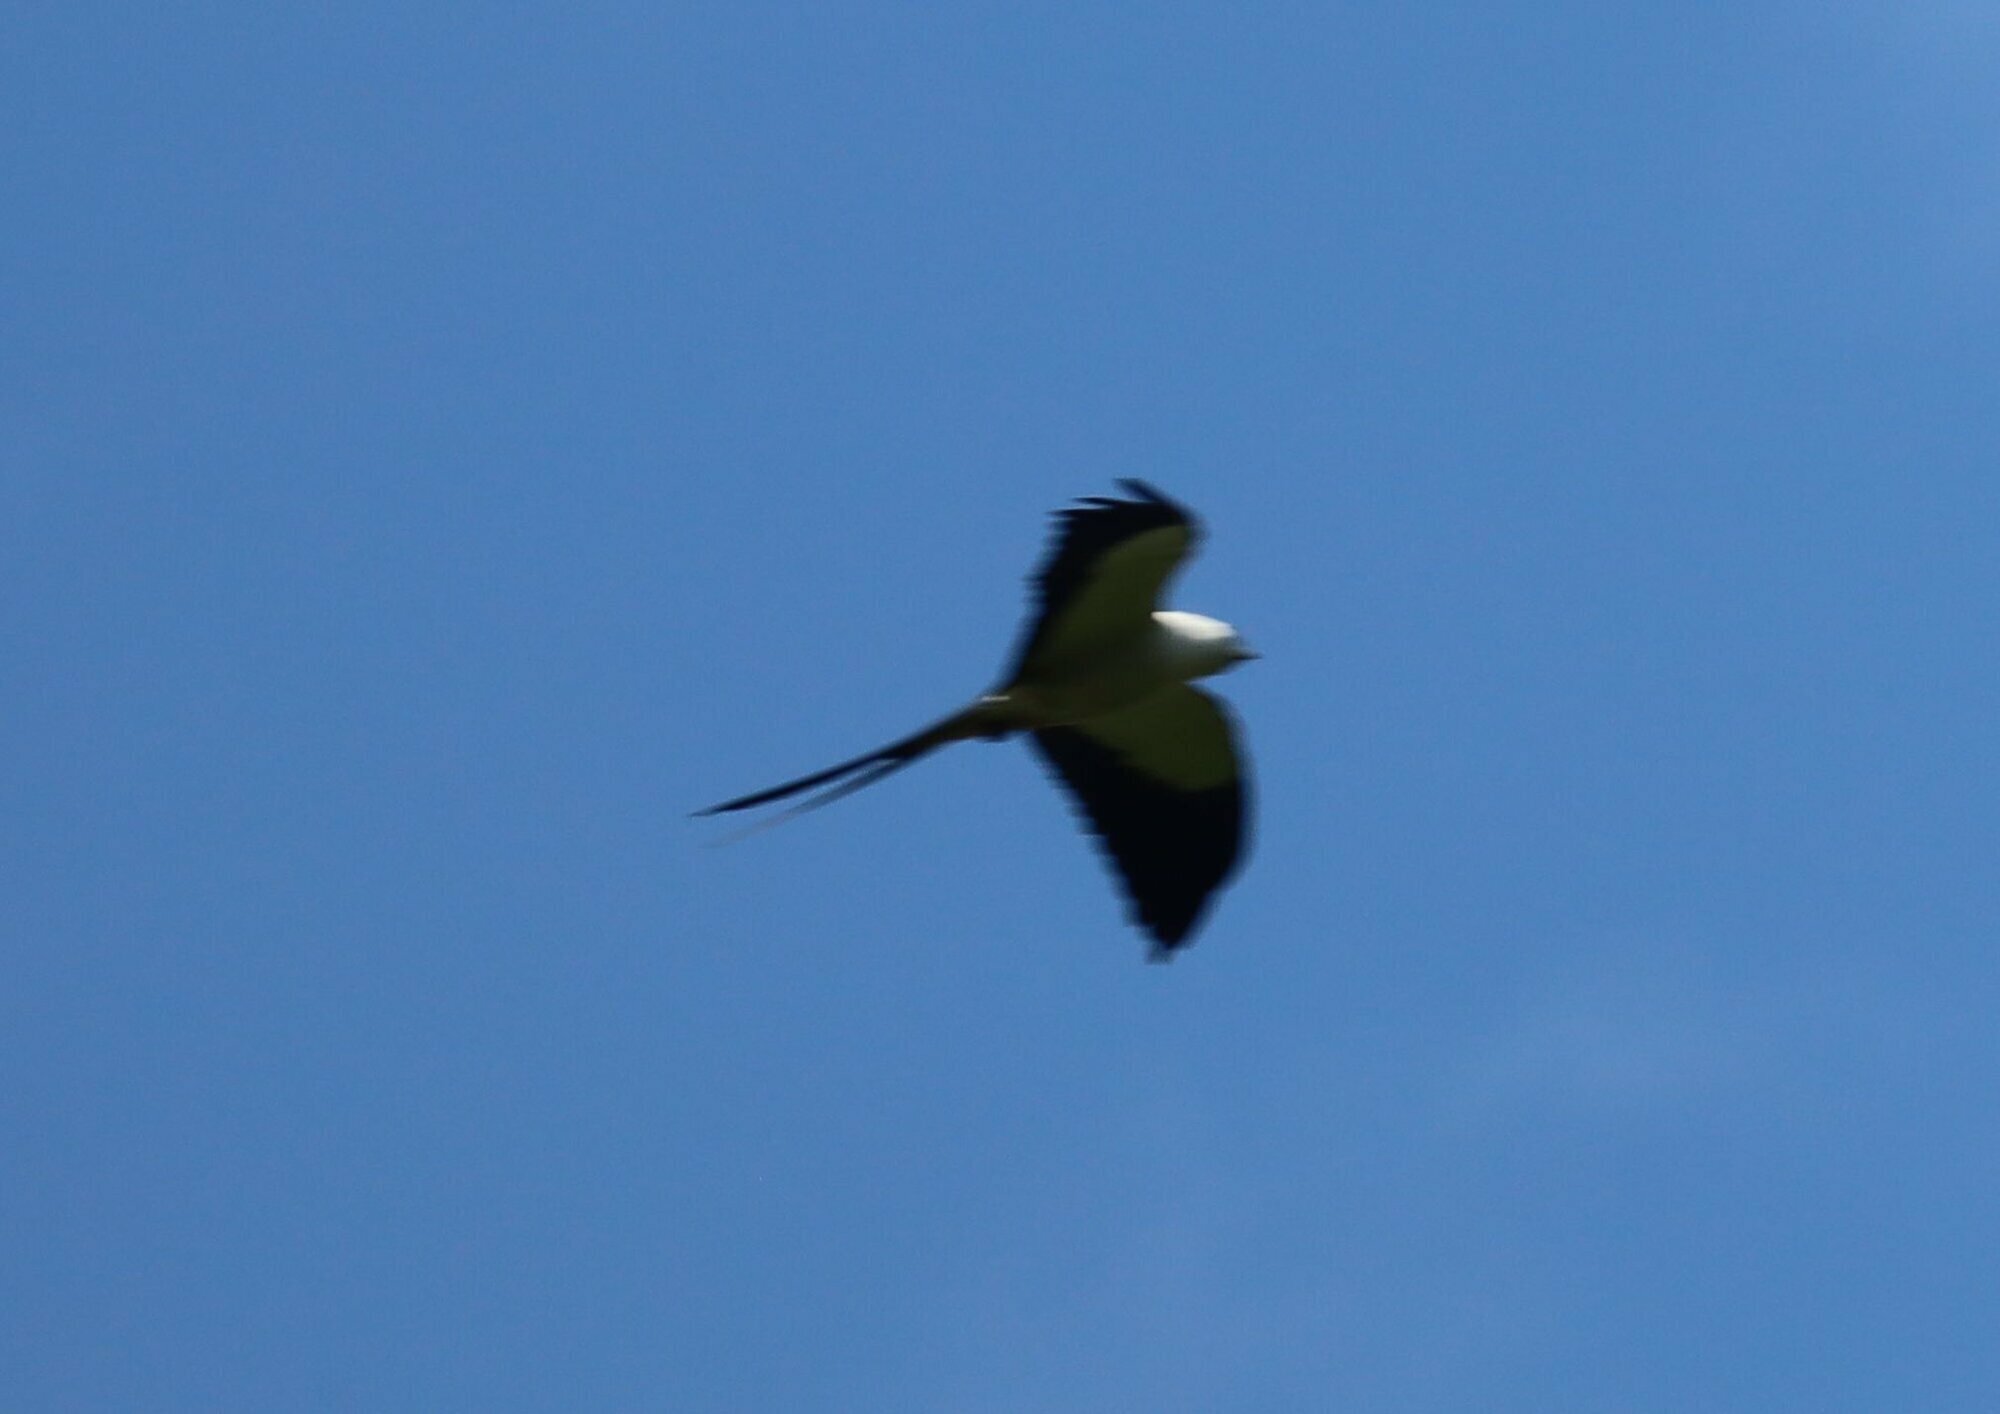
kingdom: Animalia
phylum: Chordata
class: Aves
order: Accipitriformes
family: Accipitridae
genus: Elanoides
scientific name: Elanoides forficatus
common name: Swallow-tailed kite
